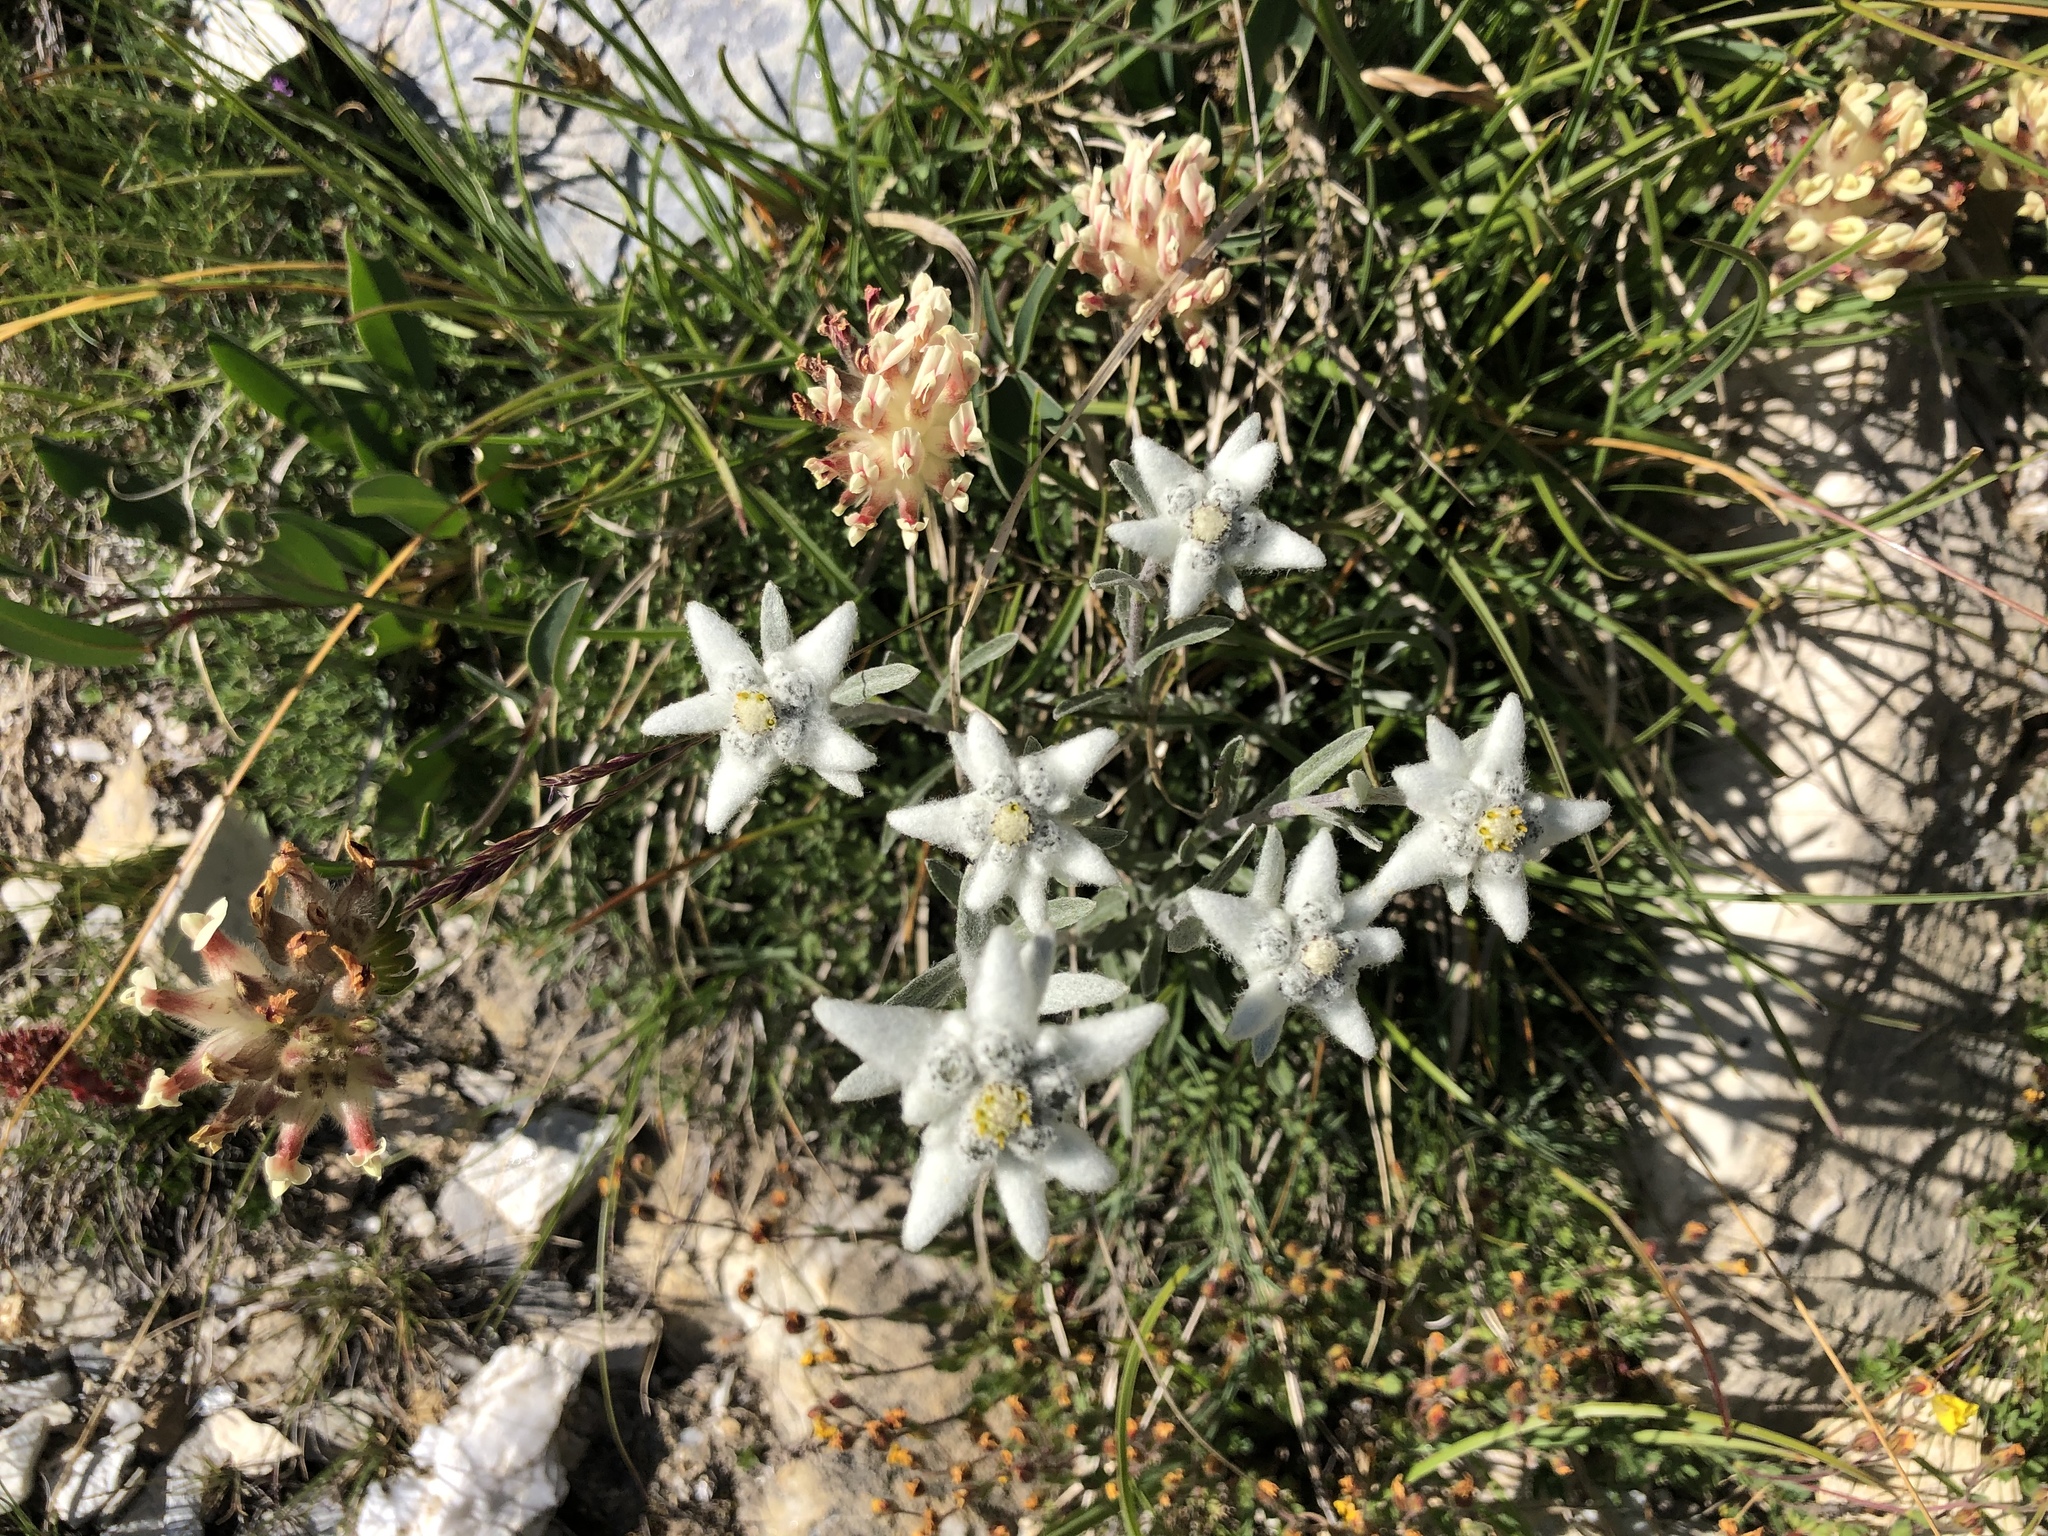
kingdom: Plantae
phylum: Tracheophyta
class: Magnoliopsida
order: Asterales
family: Asteraceae
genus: Leontopodium
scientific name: Leontopodium nivale
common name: Edelweiss
